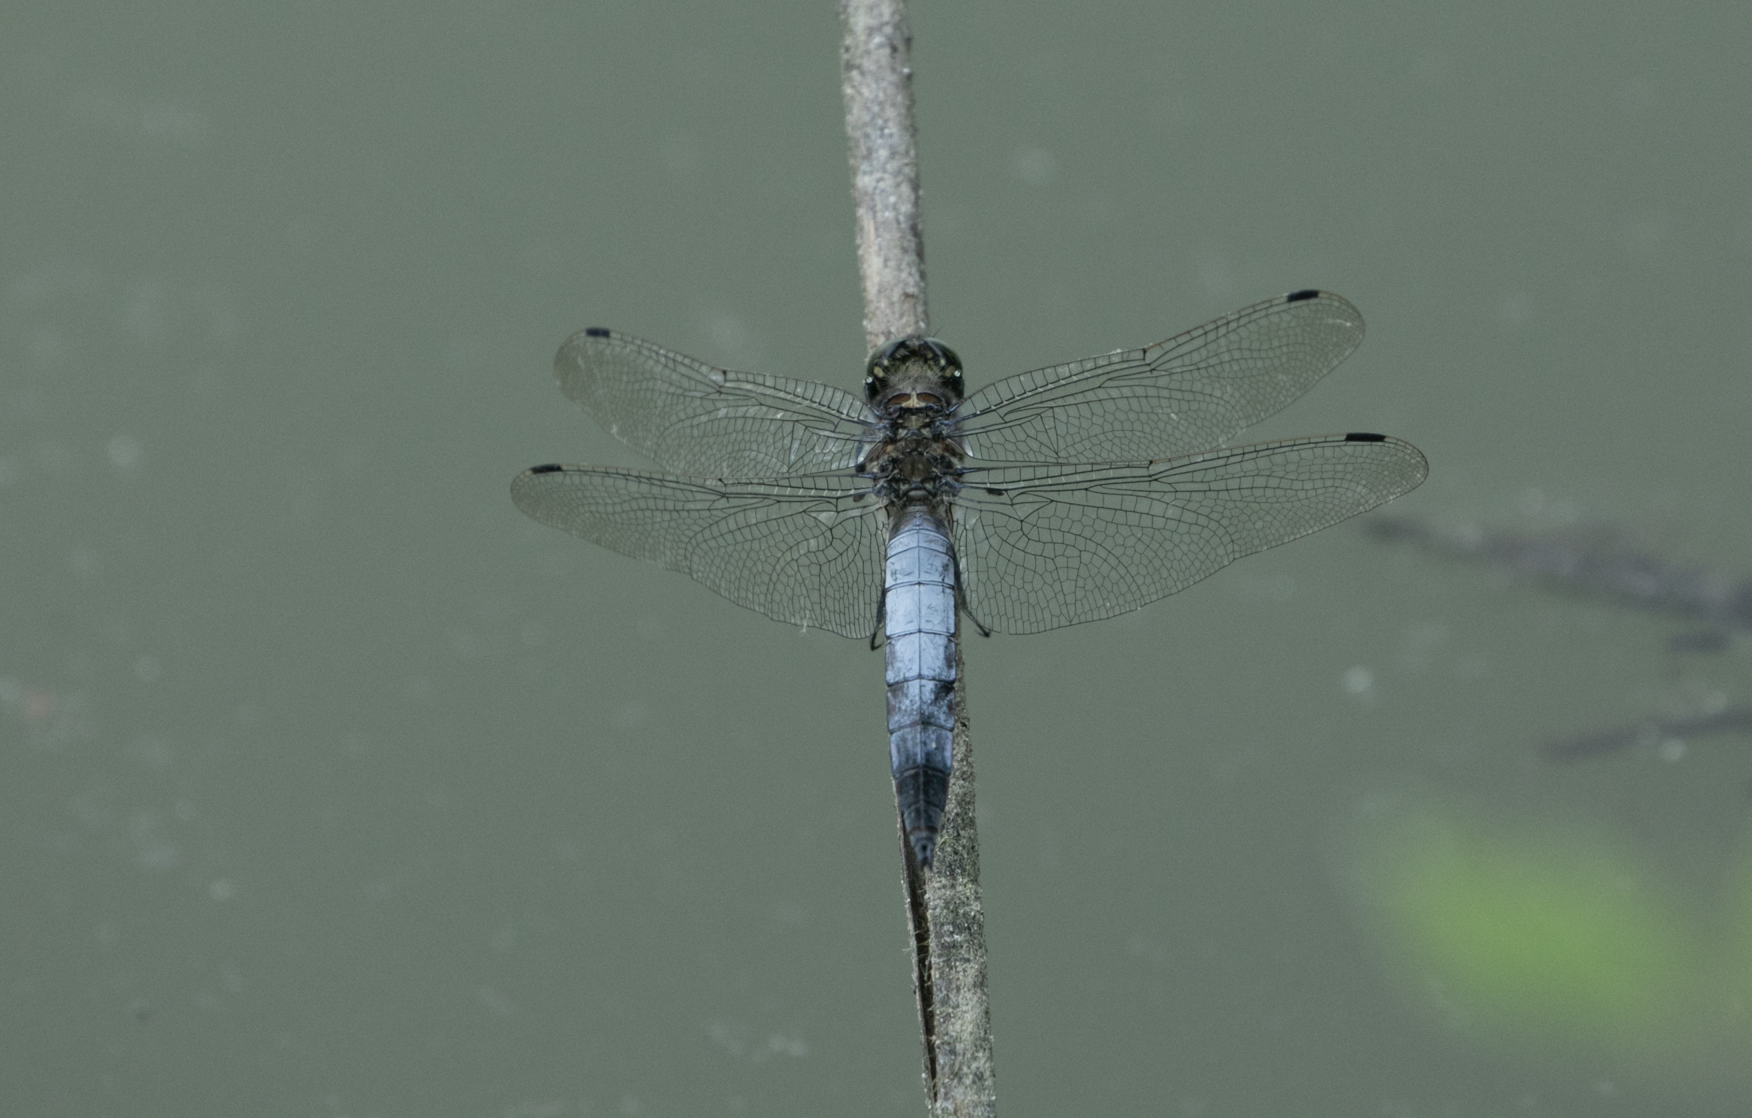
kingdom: Animalia
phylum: Arthropoda
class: Insecta
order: Odonata
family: Libellulidae
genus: Orthetrum
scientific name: Orthetrum cancellatum
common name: Black-tailed skimmer
